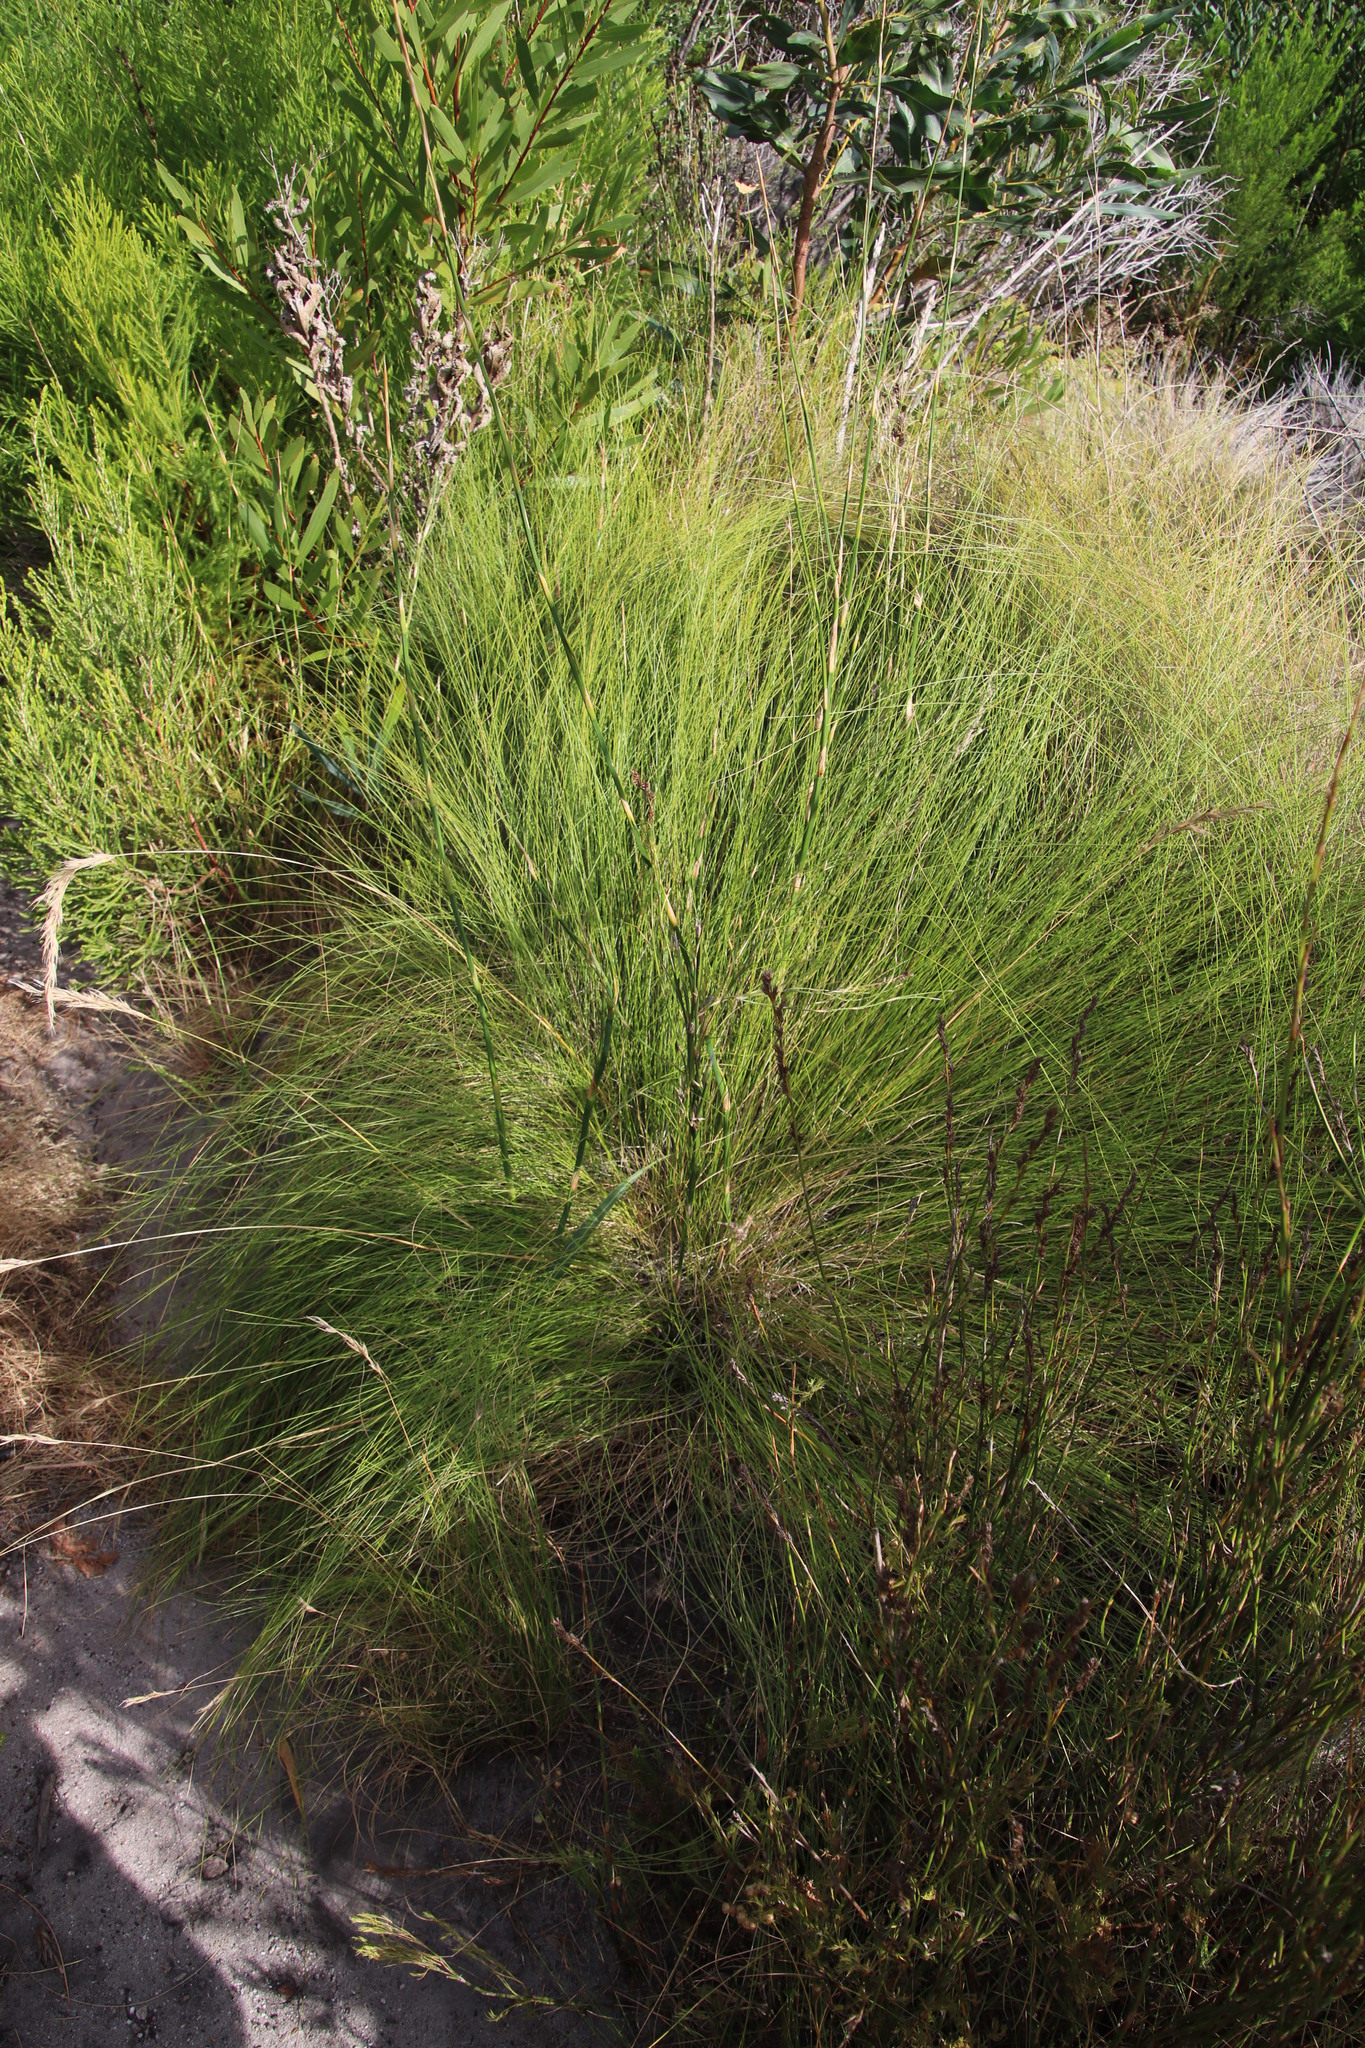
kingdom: Plantae
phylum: Tracheophyta
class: Liliopsida
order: Poales
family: Restionaceae
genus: Restio
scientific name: Restio tetragonus
